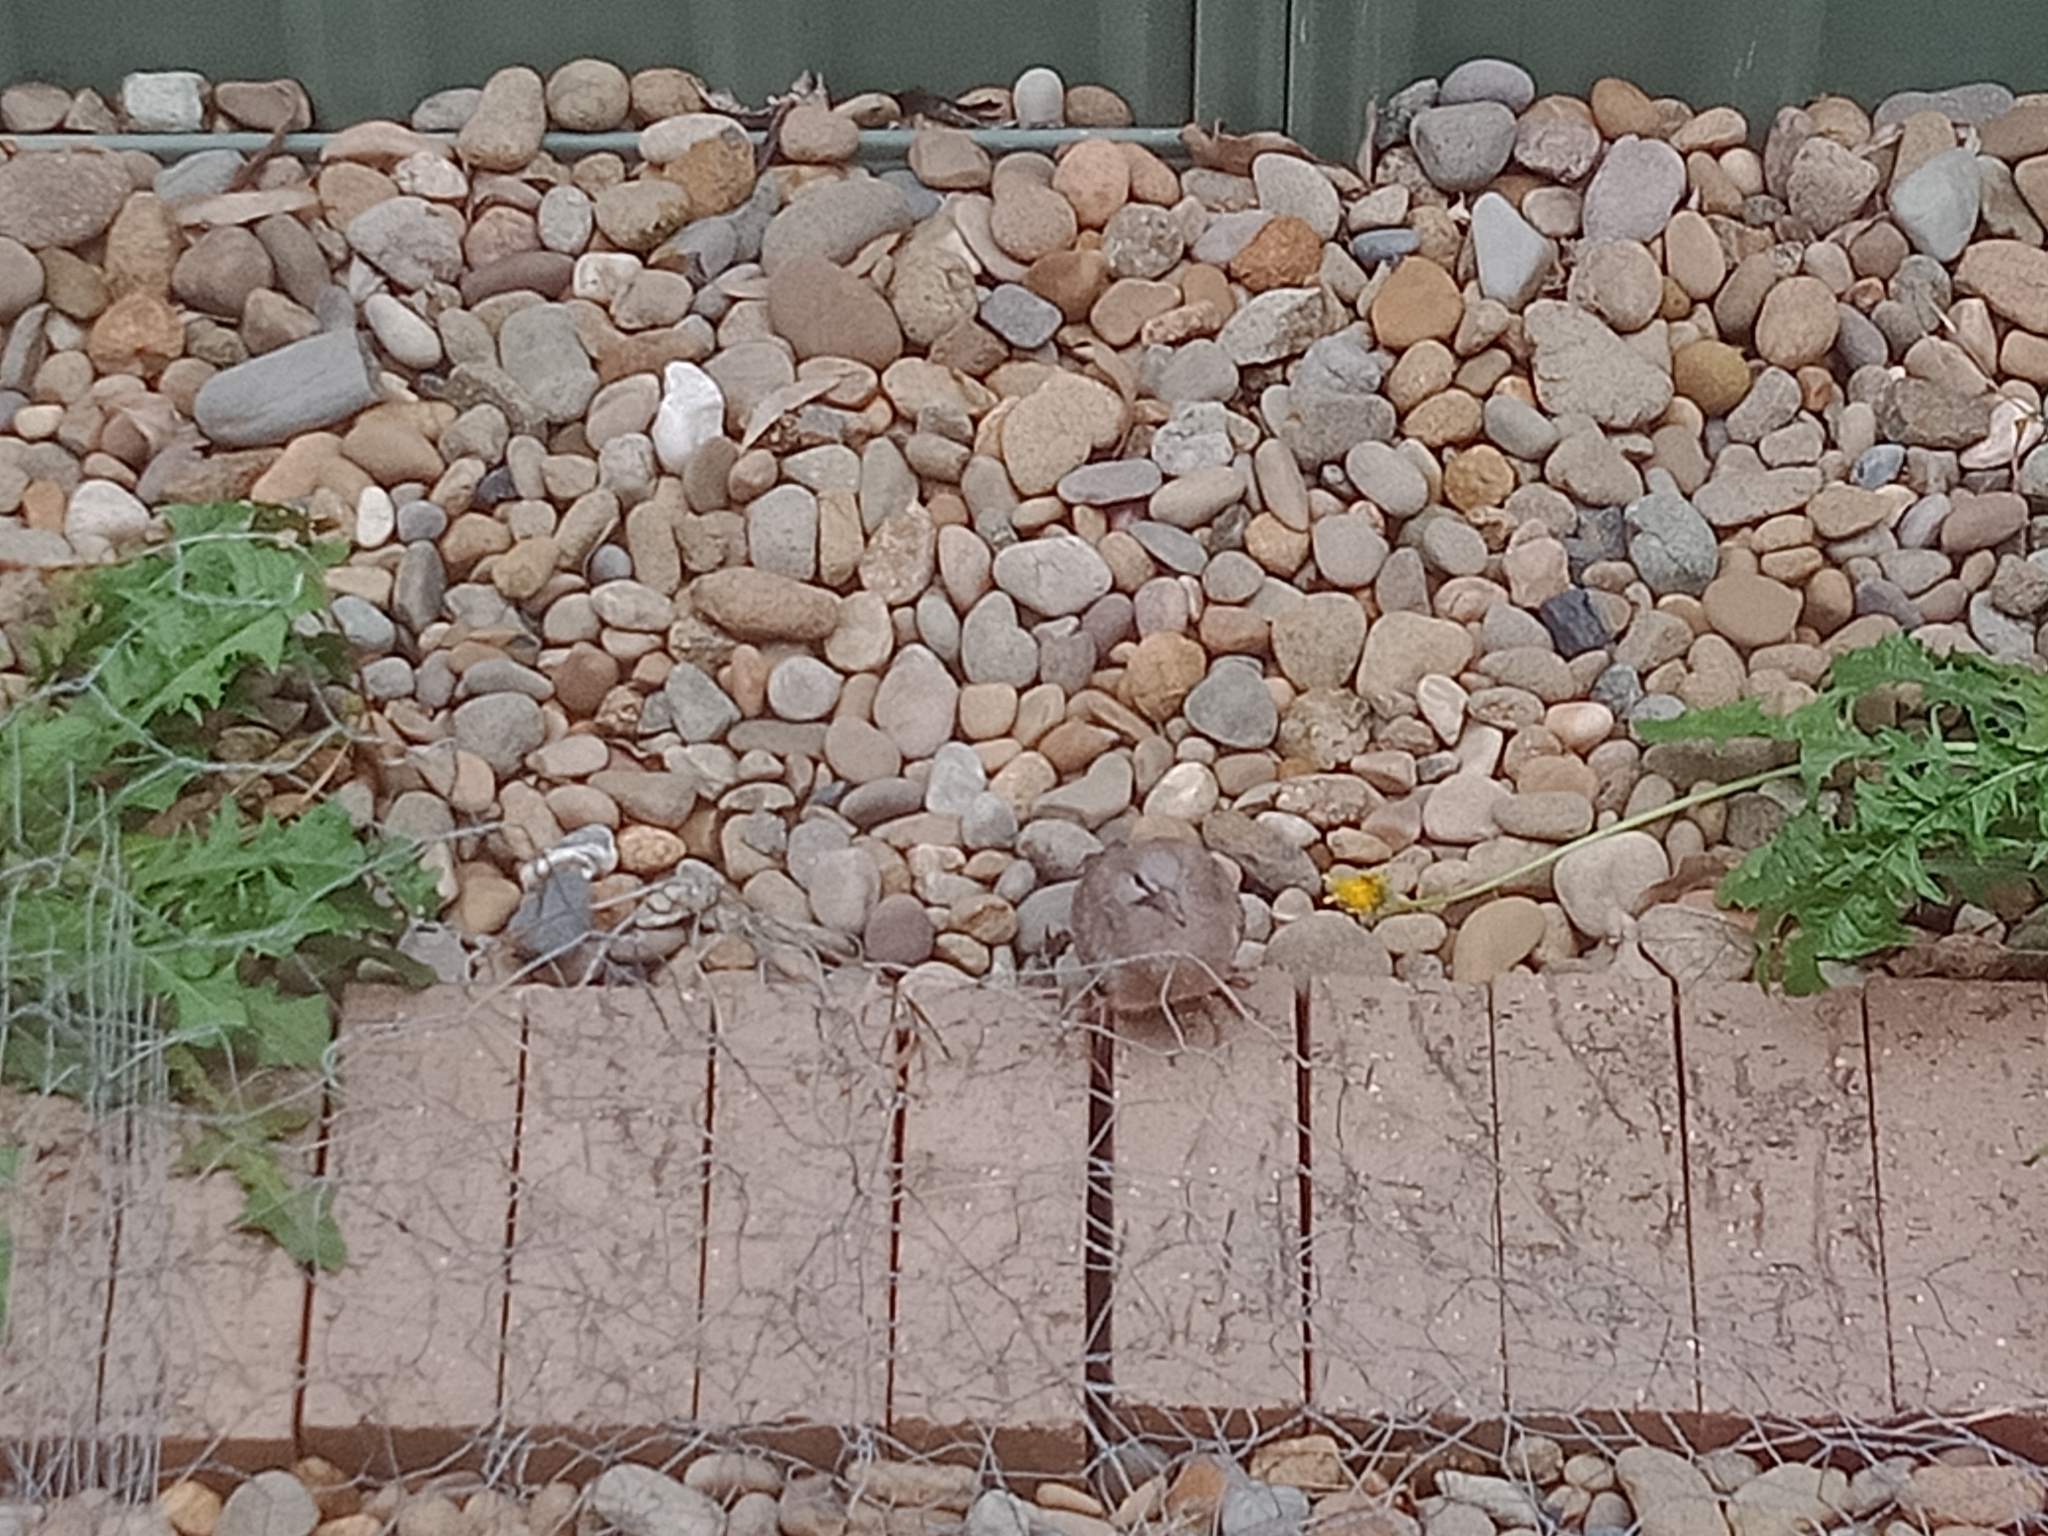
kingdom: Animalia
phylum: Chordata
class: Aves
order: Columbiformes
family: Columbidae
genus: Spilopelia
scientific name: Spilopelia chinensis
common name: Spotted dove
